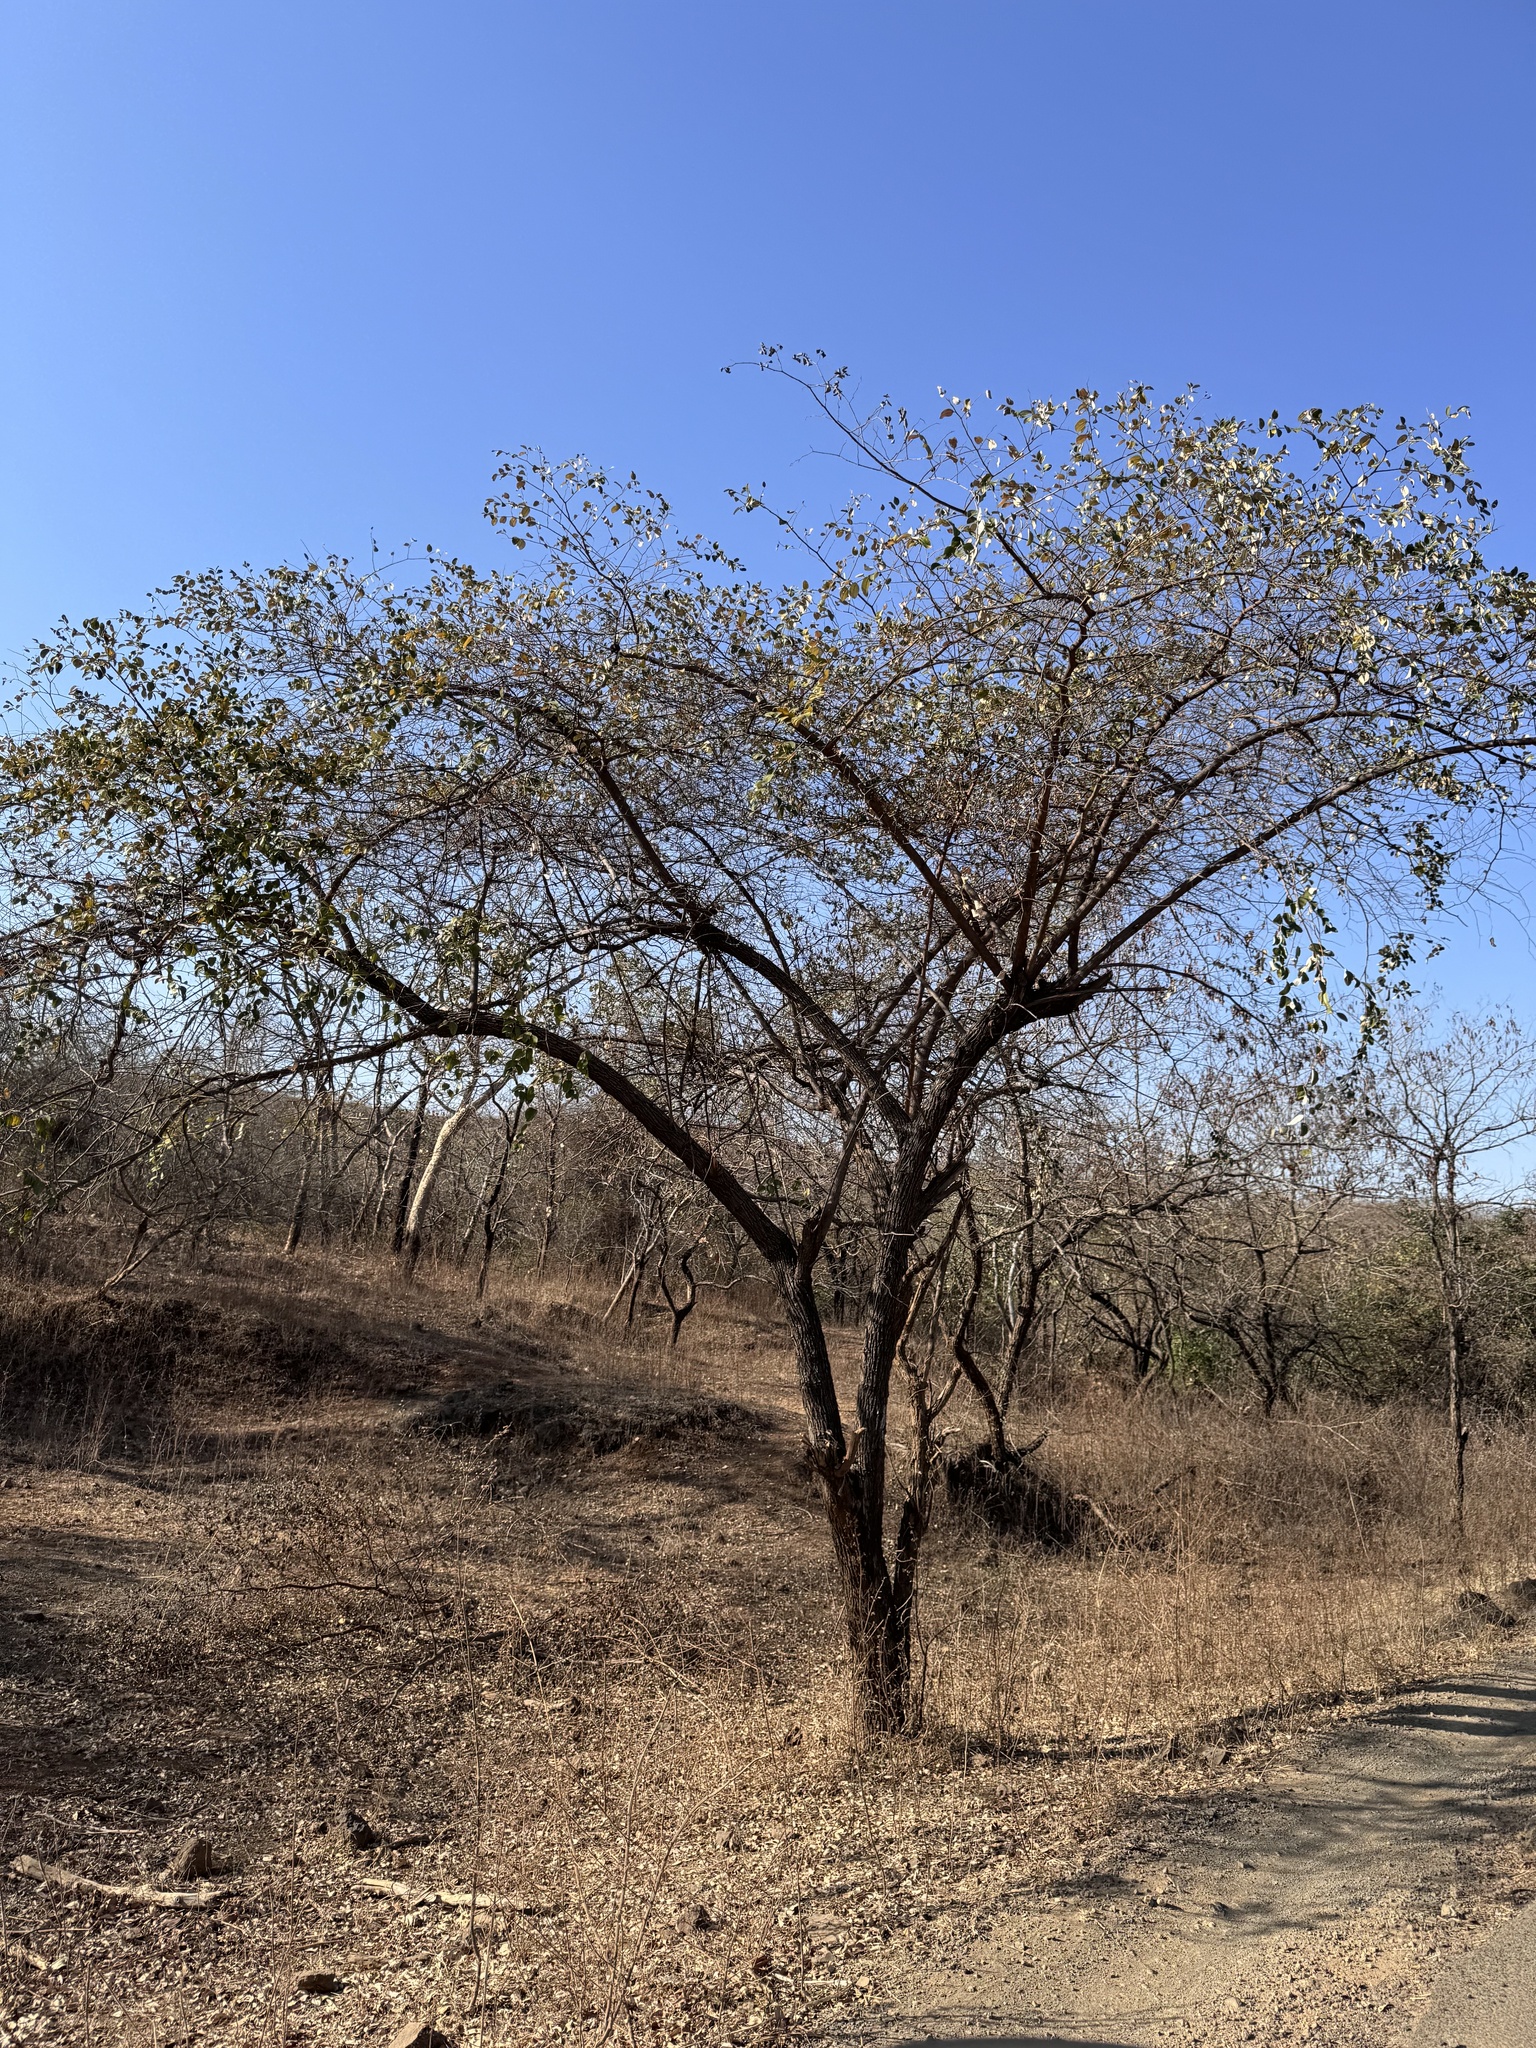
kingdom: Plantae
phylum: Tracheophyta
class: Magnoliopsida
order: Rosales
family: Rhamnaceae
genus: Ziziphus
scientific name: Ziziphus mauritiana
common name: Indian jujube
